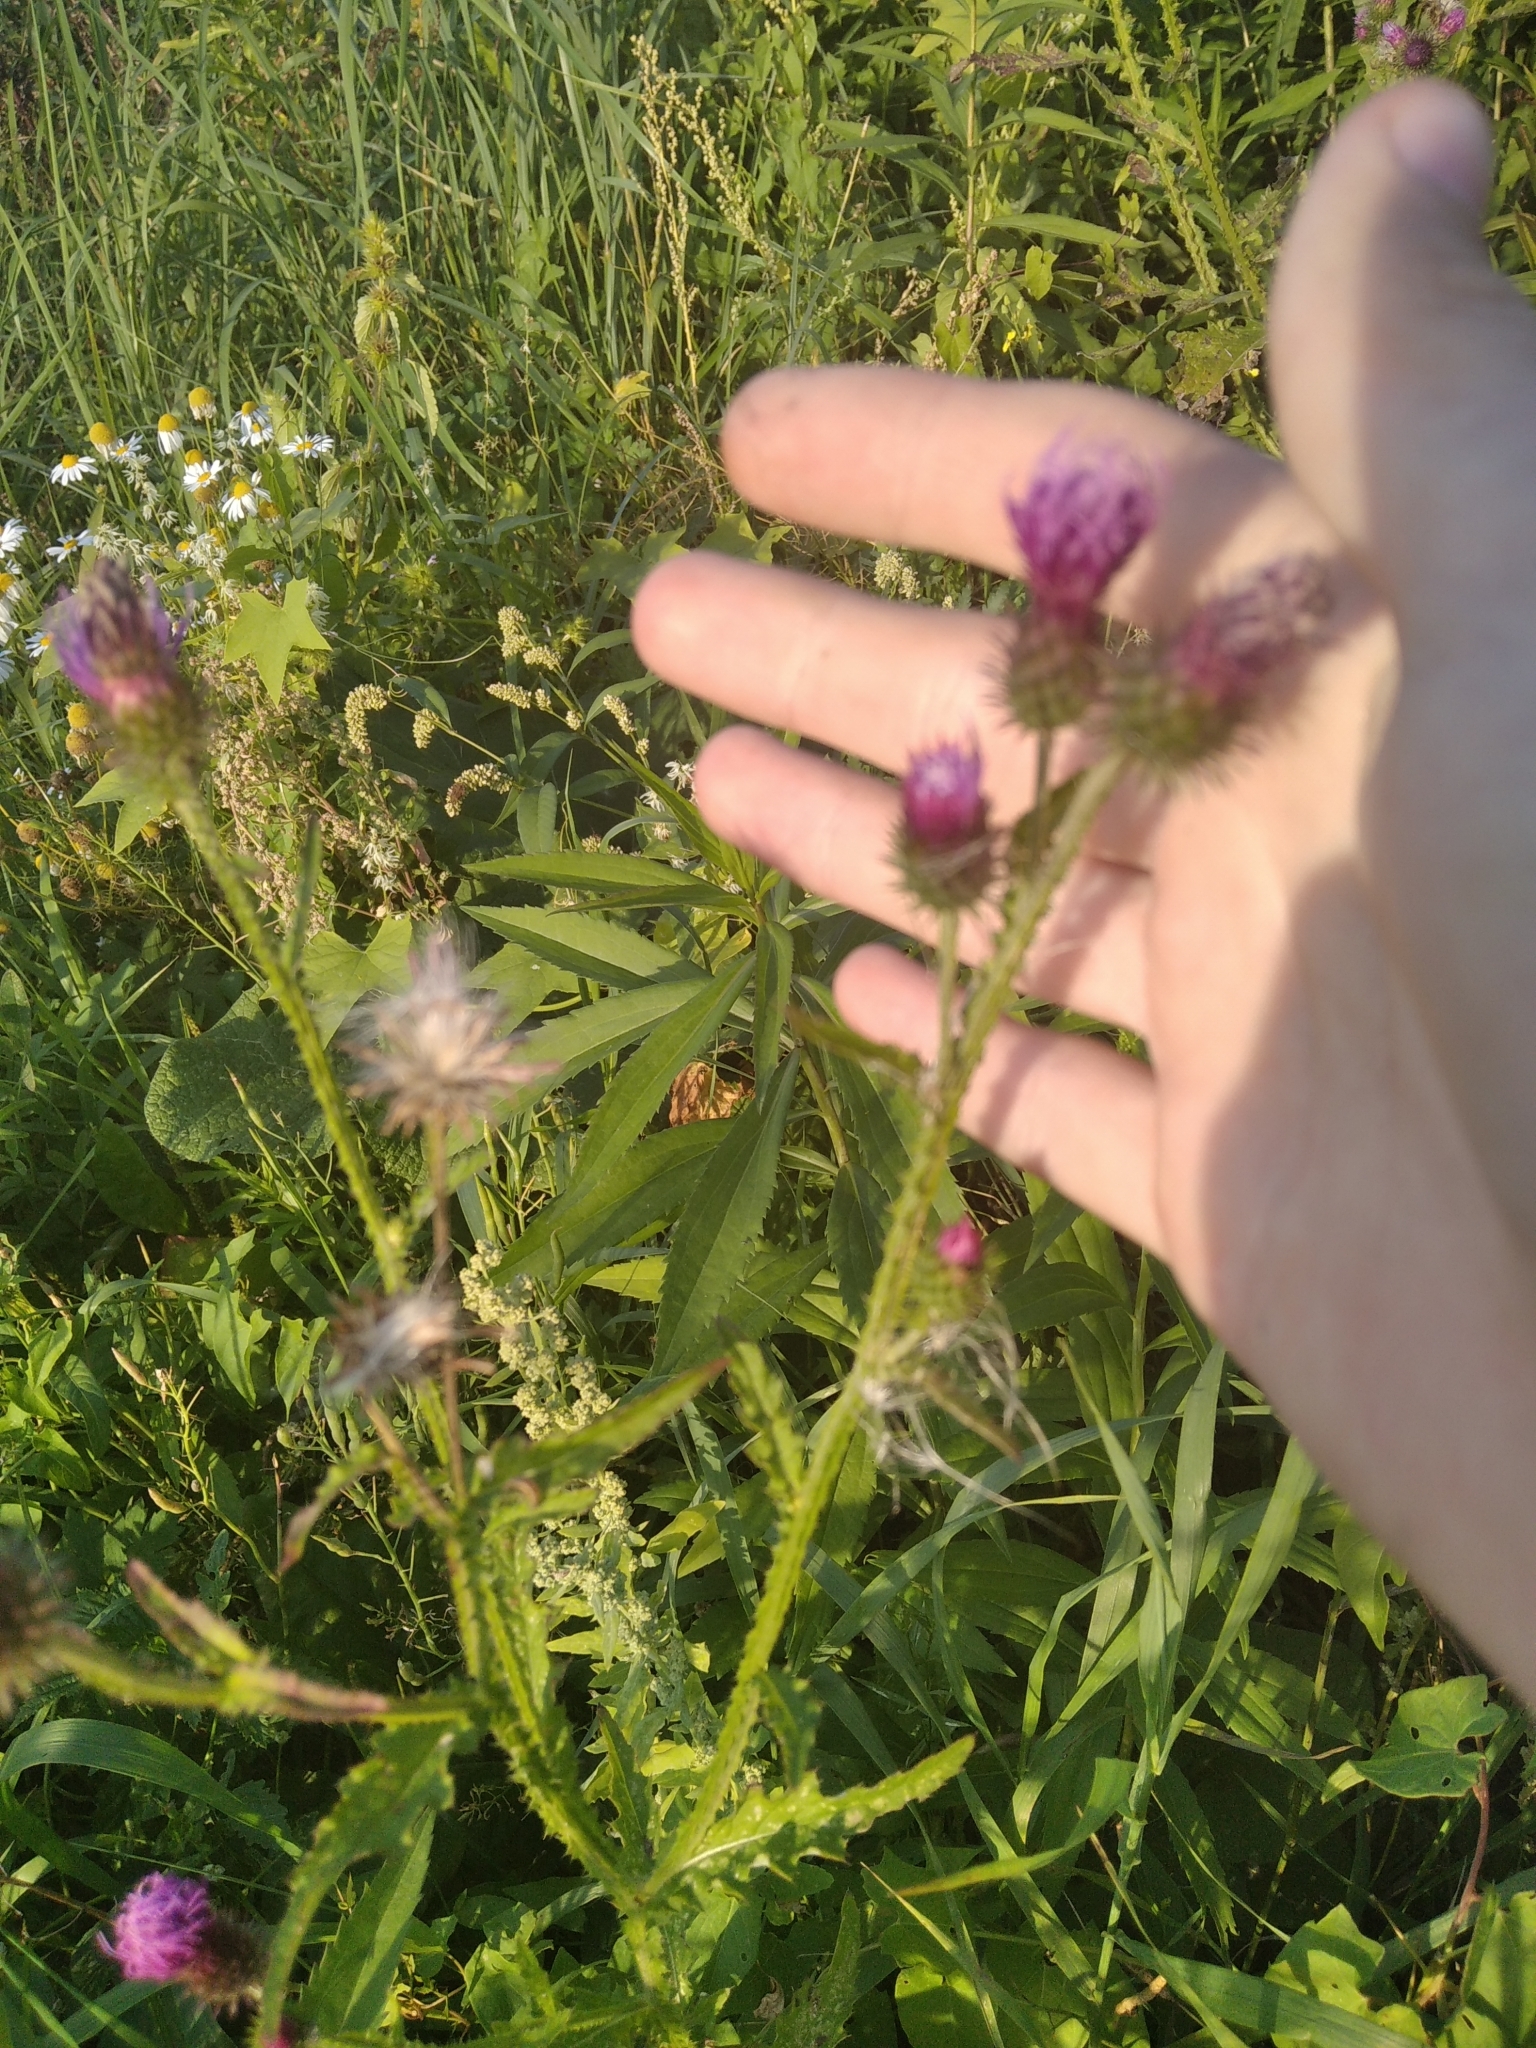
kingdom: Plantae
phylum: Tracheophyta
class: Magnoliopsida
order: Asterales
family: Asteraceae
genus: Carduus
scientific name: Carduus crispus
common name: Welted thistle
